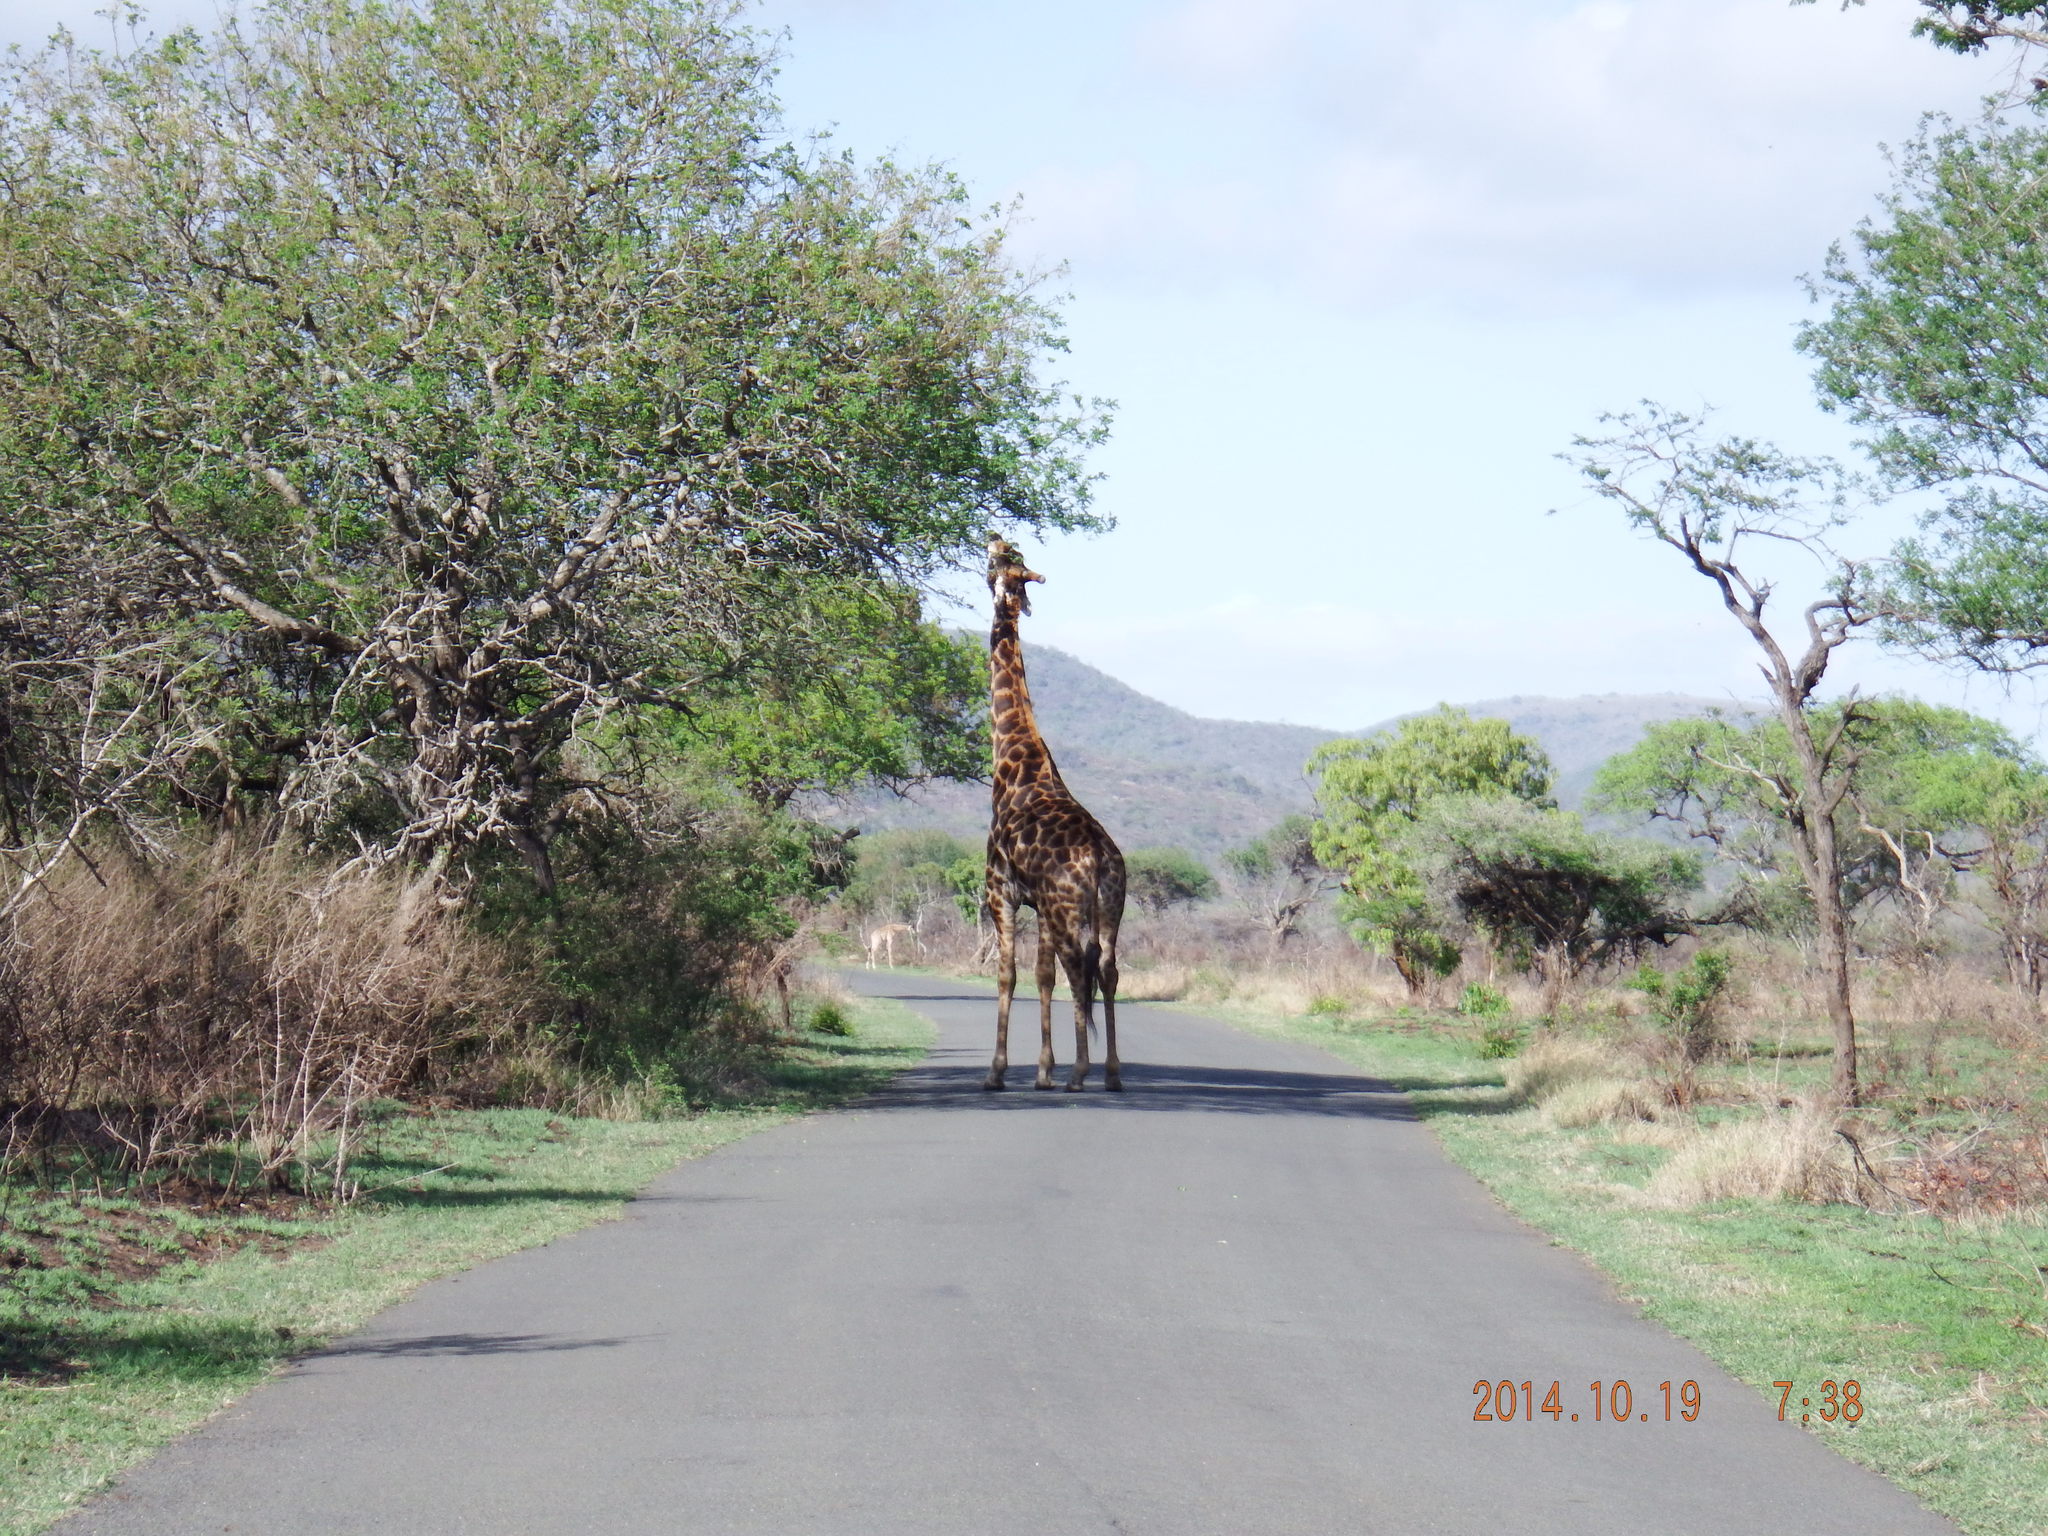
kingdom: Animalia
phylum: Chordata
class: Mammalia
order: Artiodactyla
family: Giraffidae
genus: Giraffa
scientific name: Giraffa giraffa
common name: Southern giraffe
